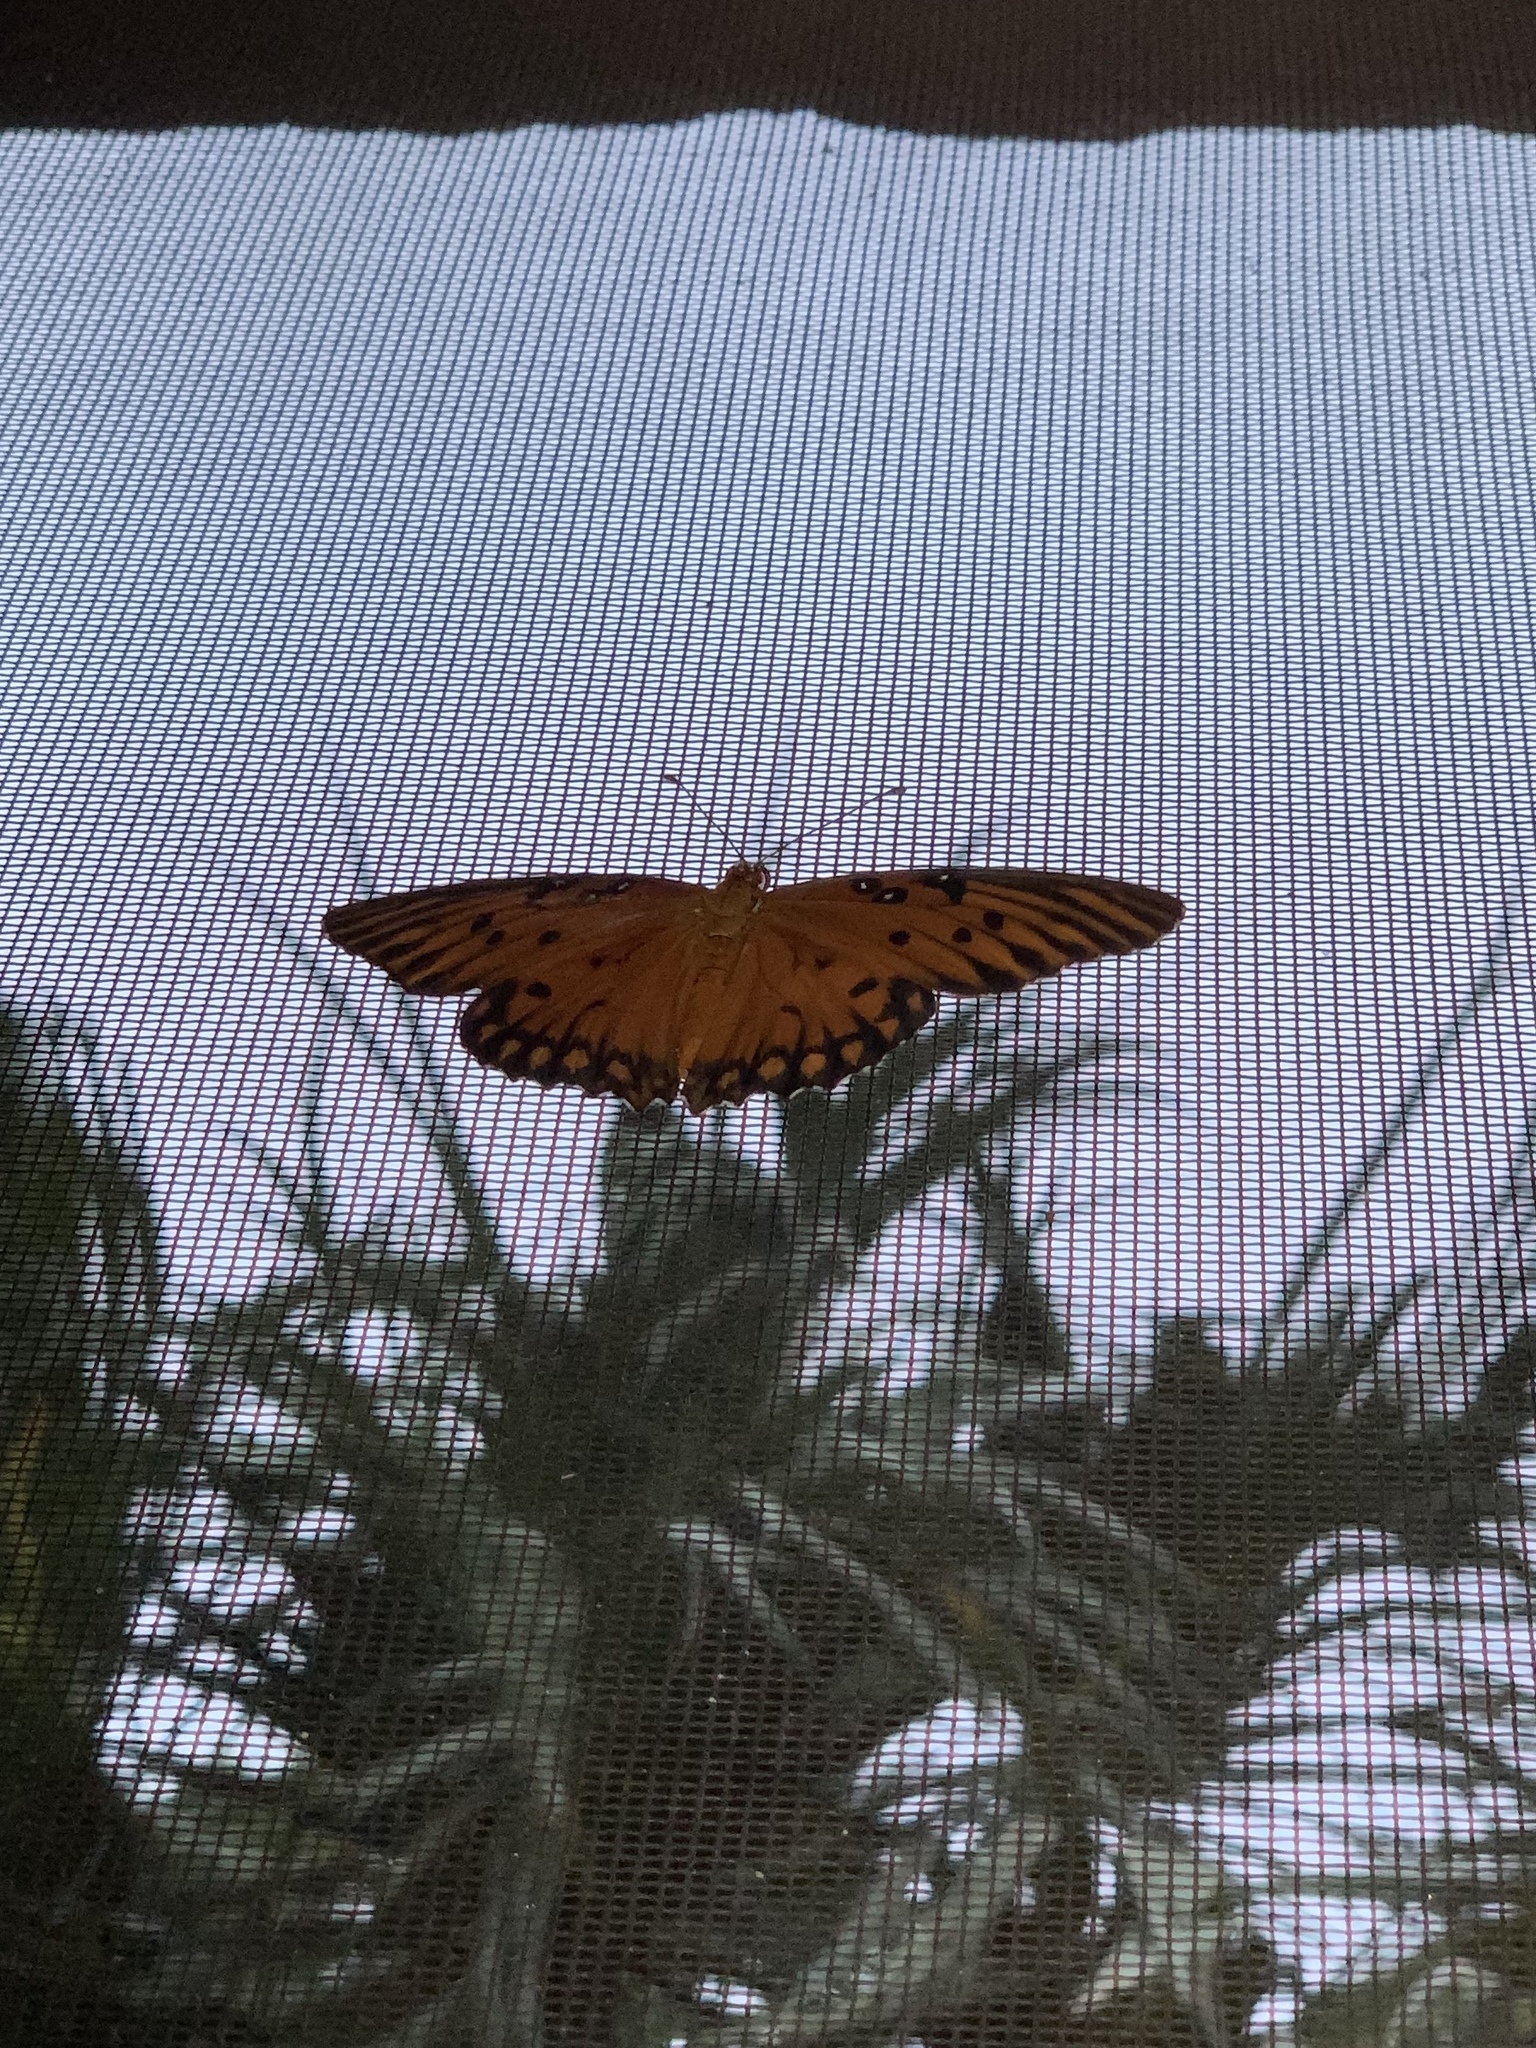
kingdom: Animalia
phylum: Arthropoda
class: Insecta
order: Lepidoptera
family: Nymphalidae
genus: Dione
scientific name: Dione vanillae
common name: Gulf fritillary
